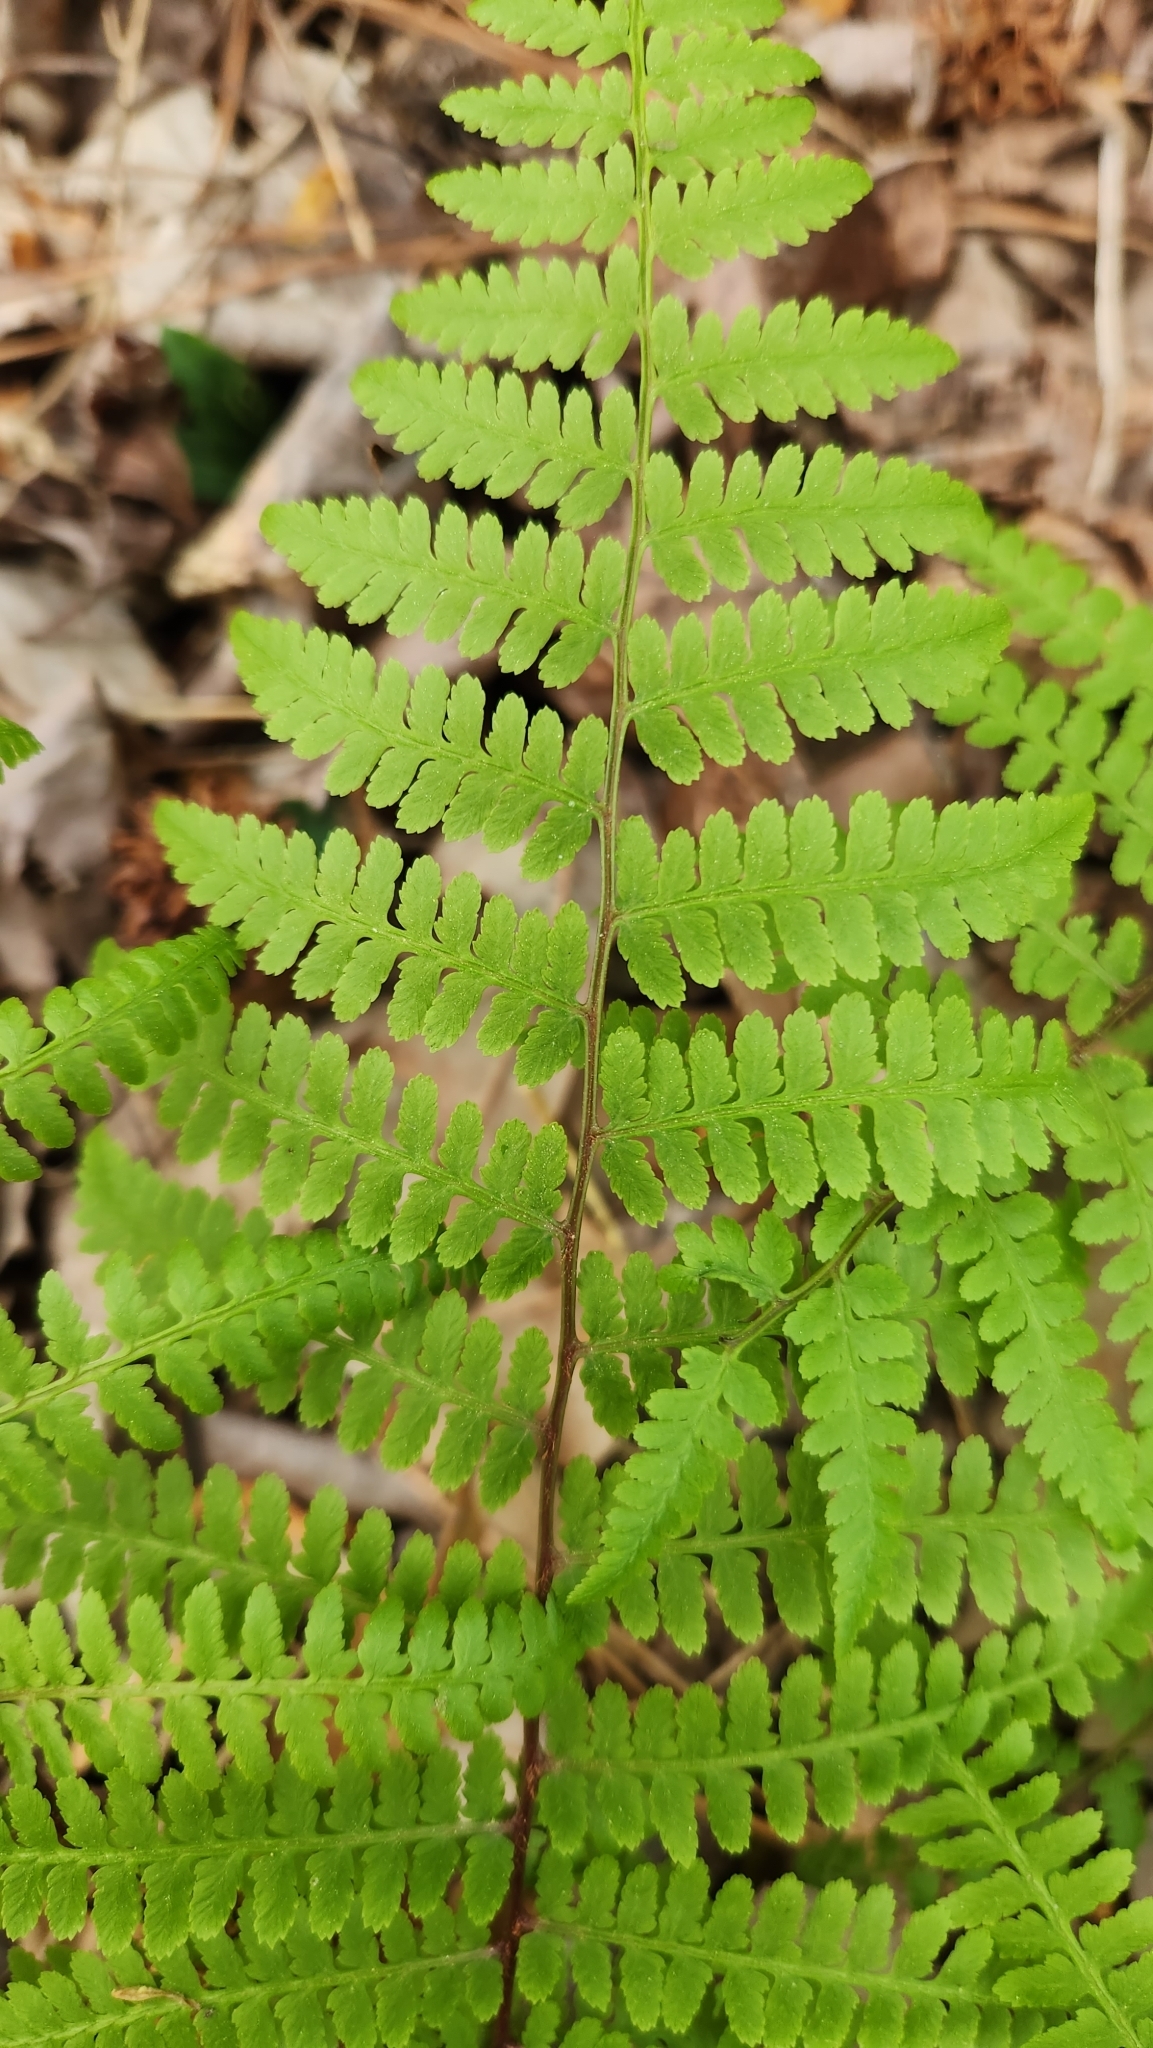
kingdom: Plantae
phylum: Tracheophyta
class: Polypodiopsida
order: Polypodiales
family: Athyriaceae
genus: Athyrium
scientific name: Athyrium asplenioides
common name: Southern lady fern
